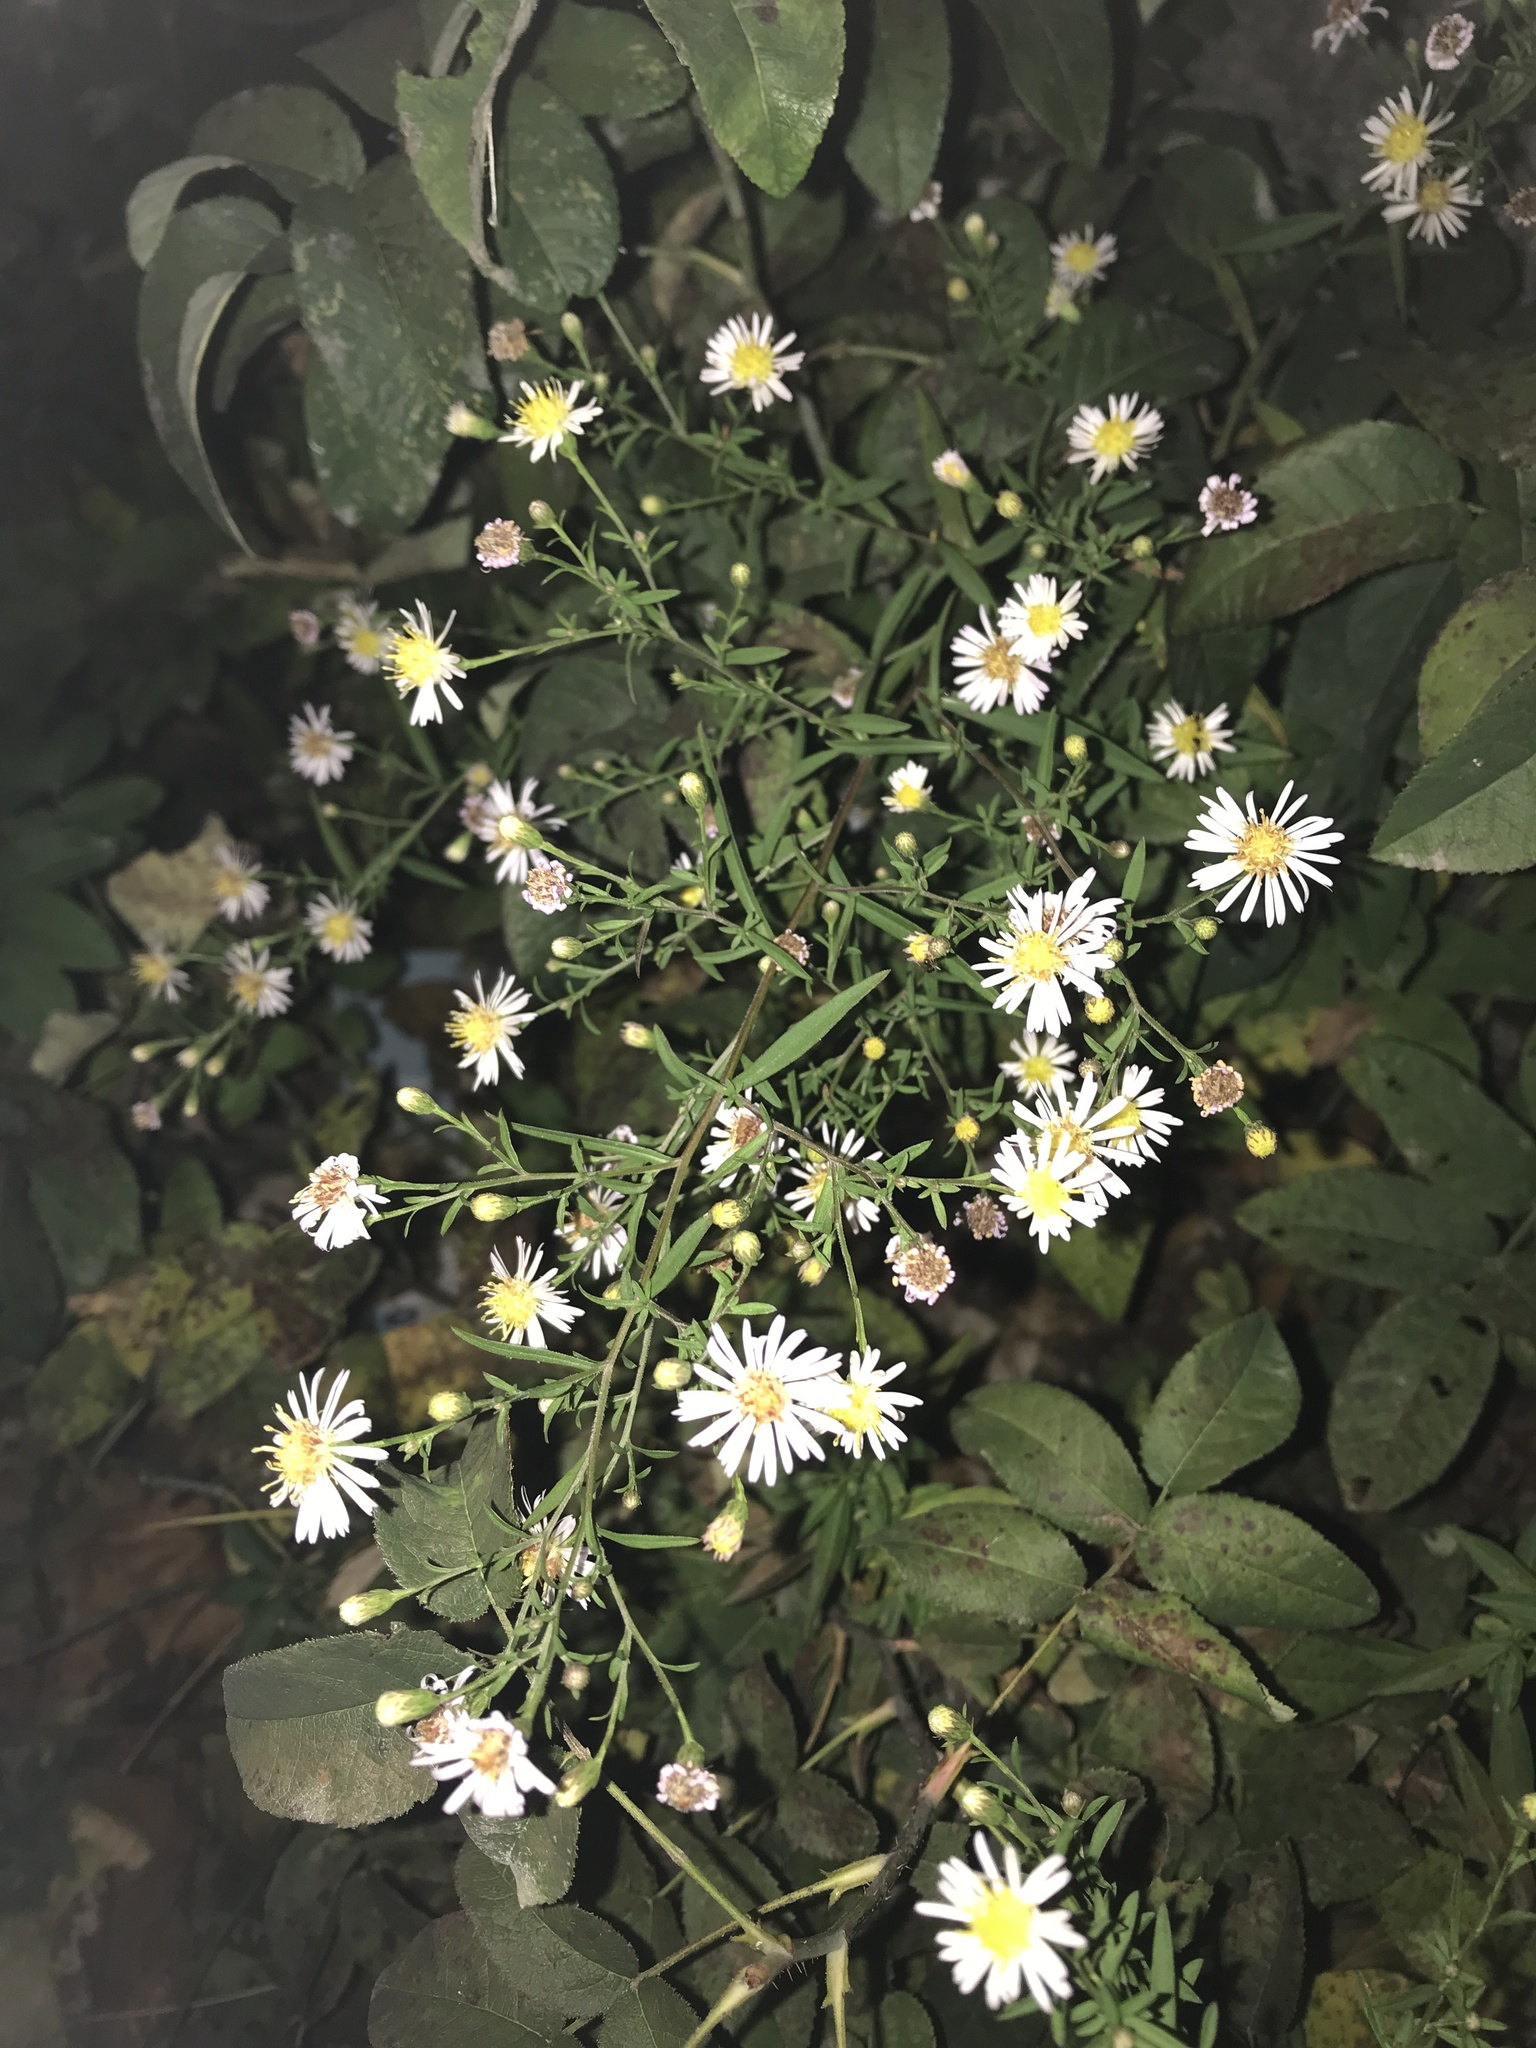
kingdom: Plantae
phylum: Tracheophyta
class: Magnoliopsida
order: Asterales
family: Asteraceae
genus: Symphyotrichum
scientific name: Symphyotrichum pilosum
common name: Awl aster
